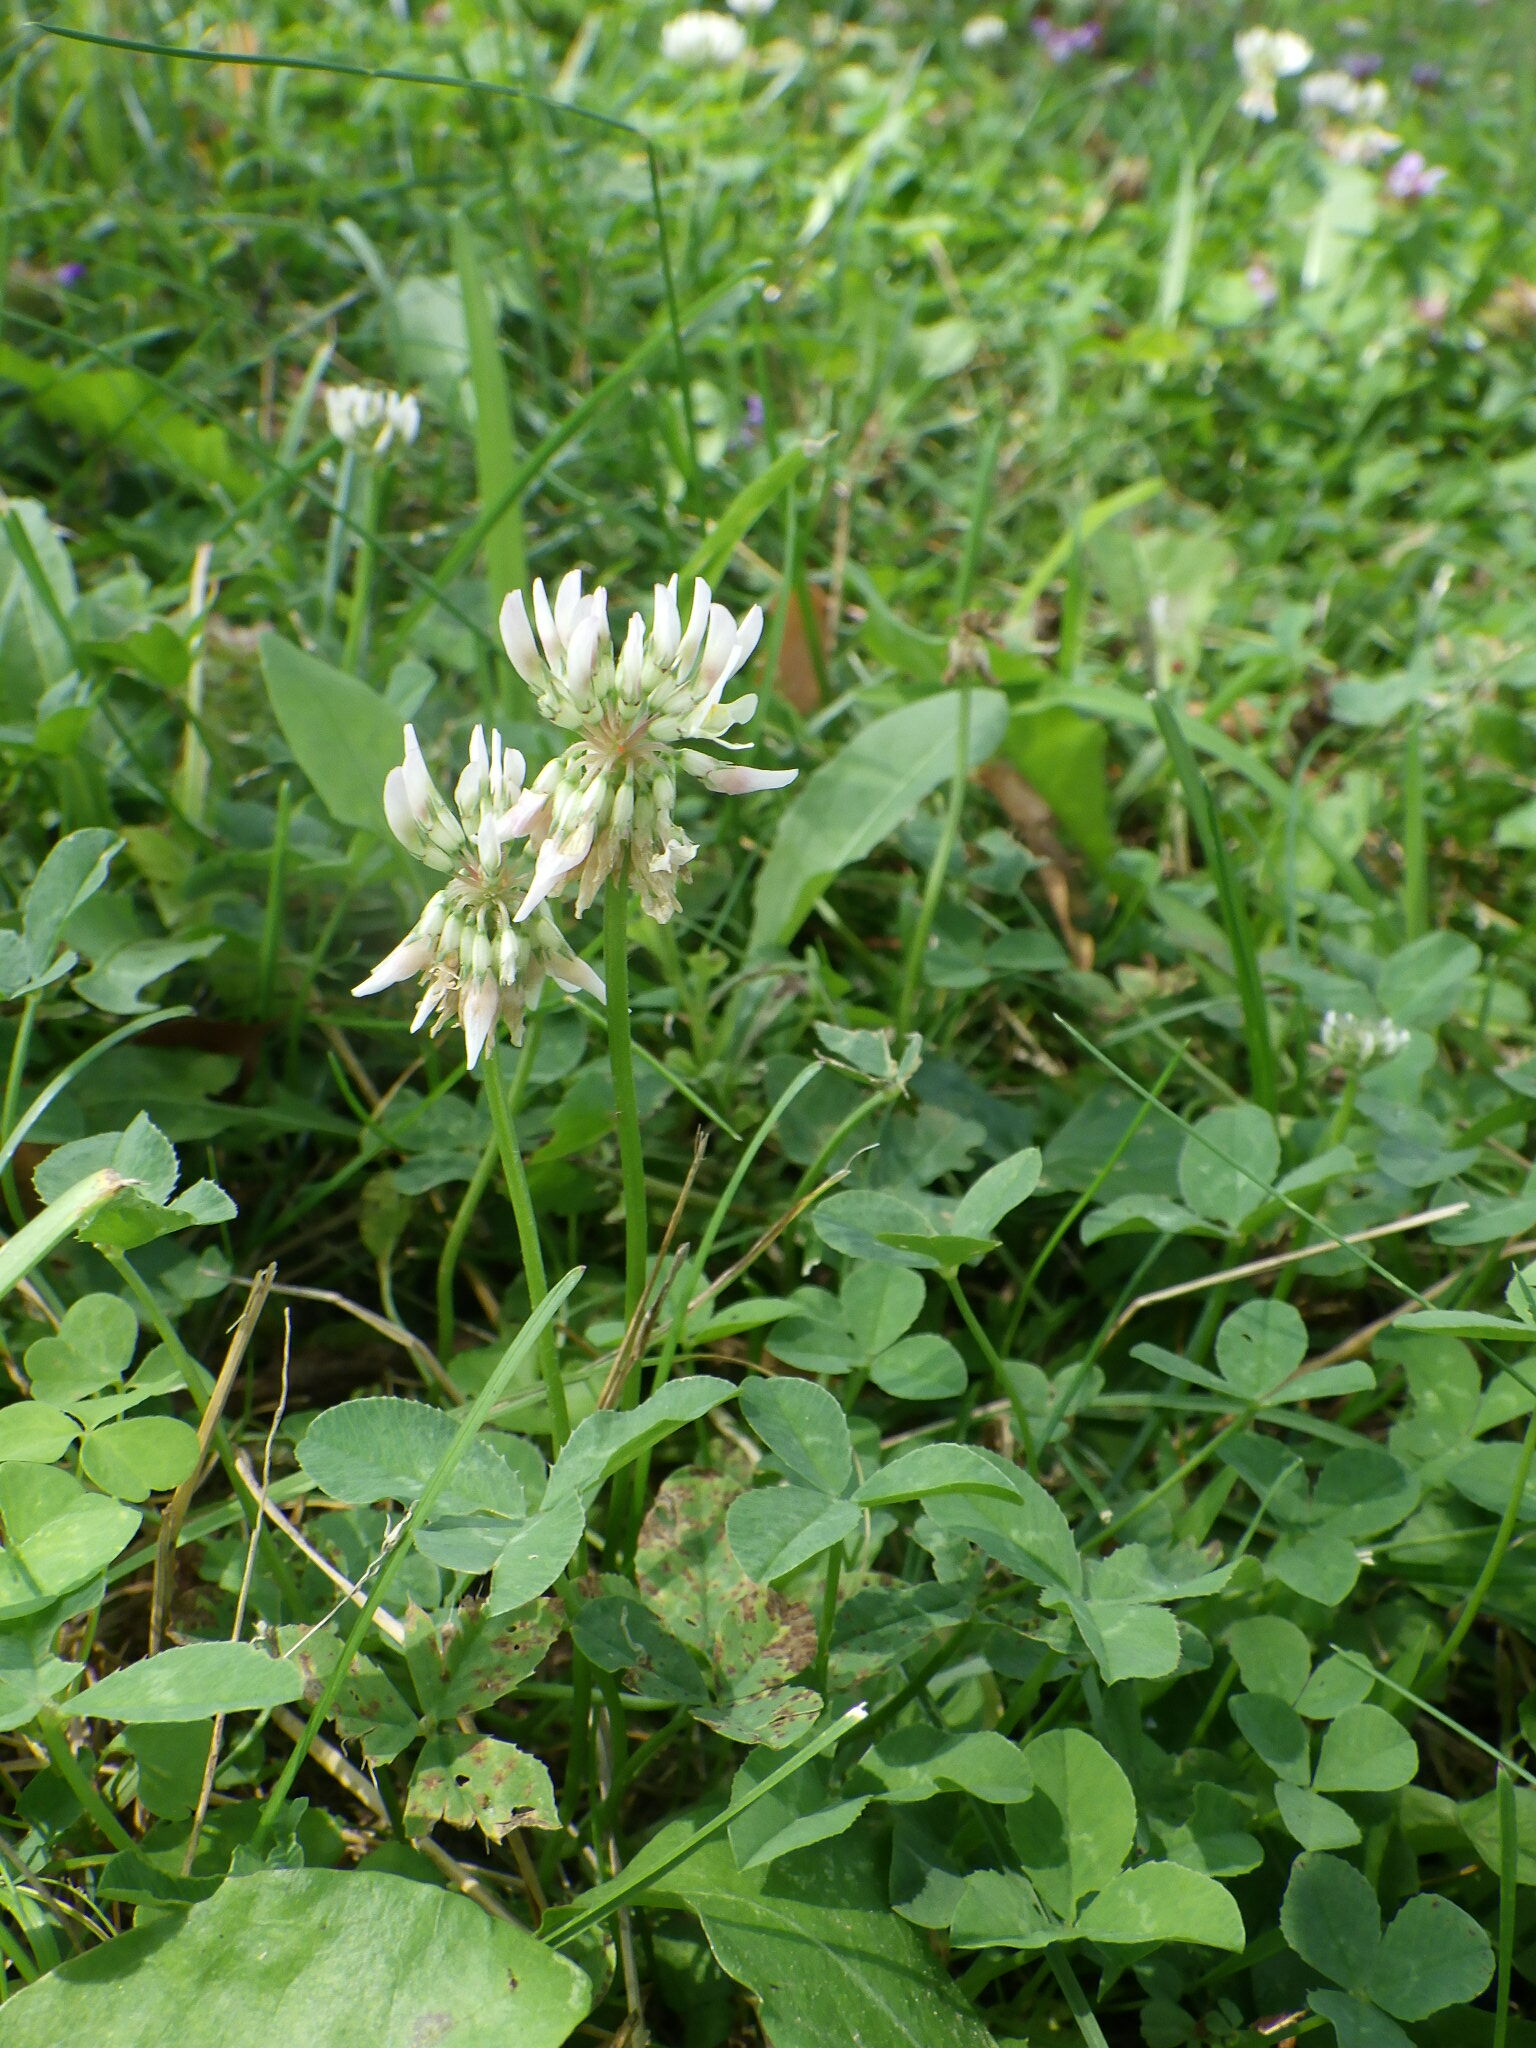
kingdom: Plantae
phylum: Tracheophyta
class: Magnoliopsida
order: Fabales
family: Fabaceae
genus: Trifolium
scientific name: Trifolium repens
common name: White clover
